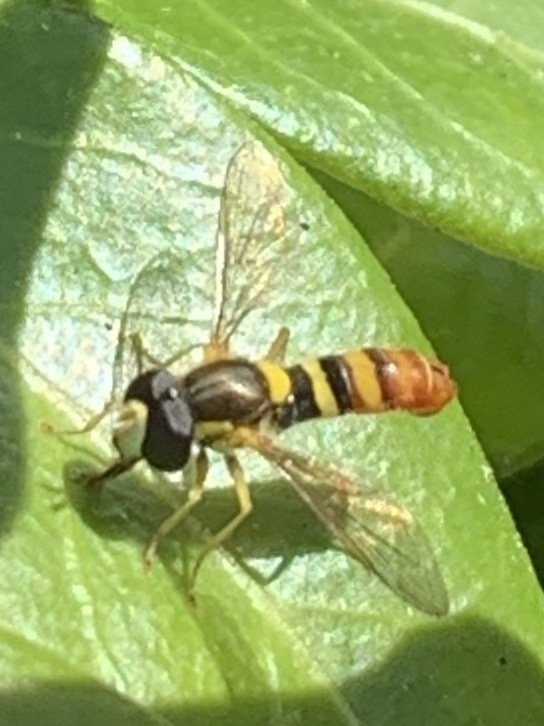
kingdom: Animalia
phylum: Arthropoda
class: Insecta
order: Diptera
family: Syrphidae
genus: Sphaerophoria
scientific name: Sphaerophoria sulphuripes
